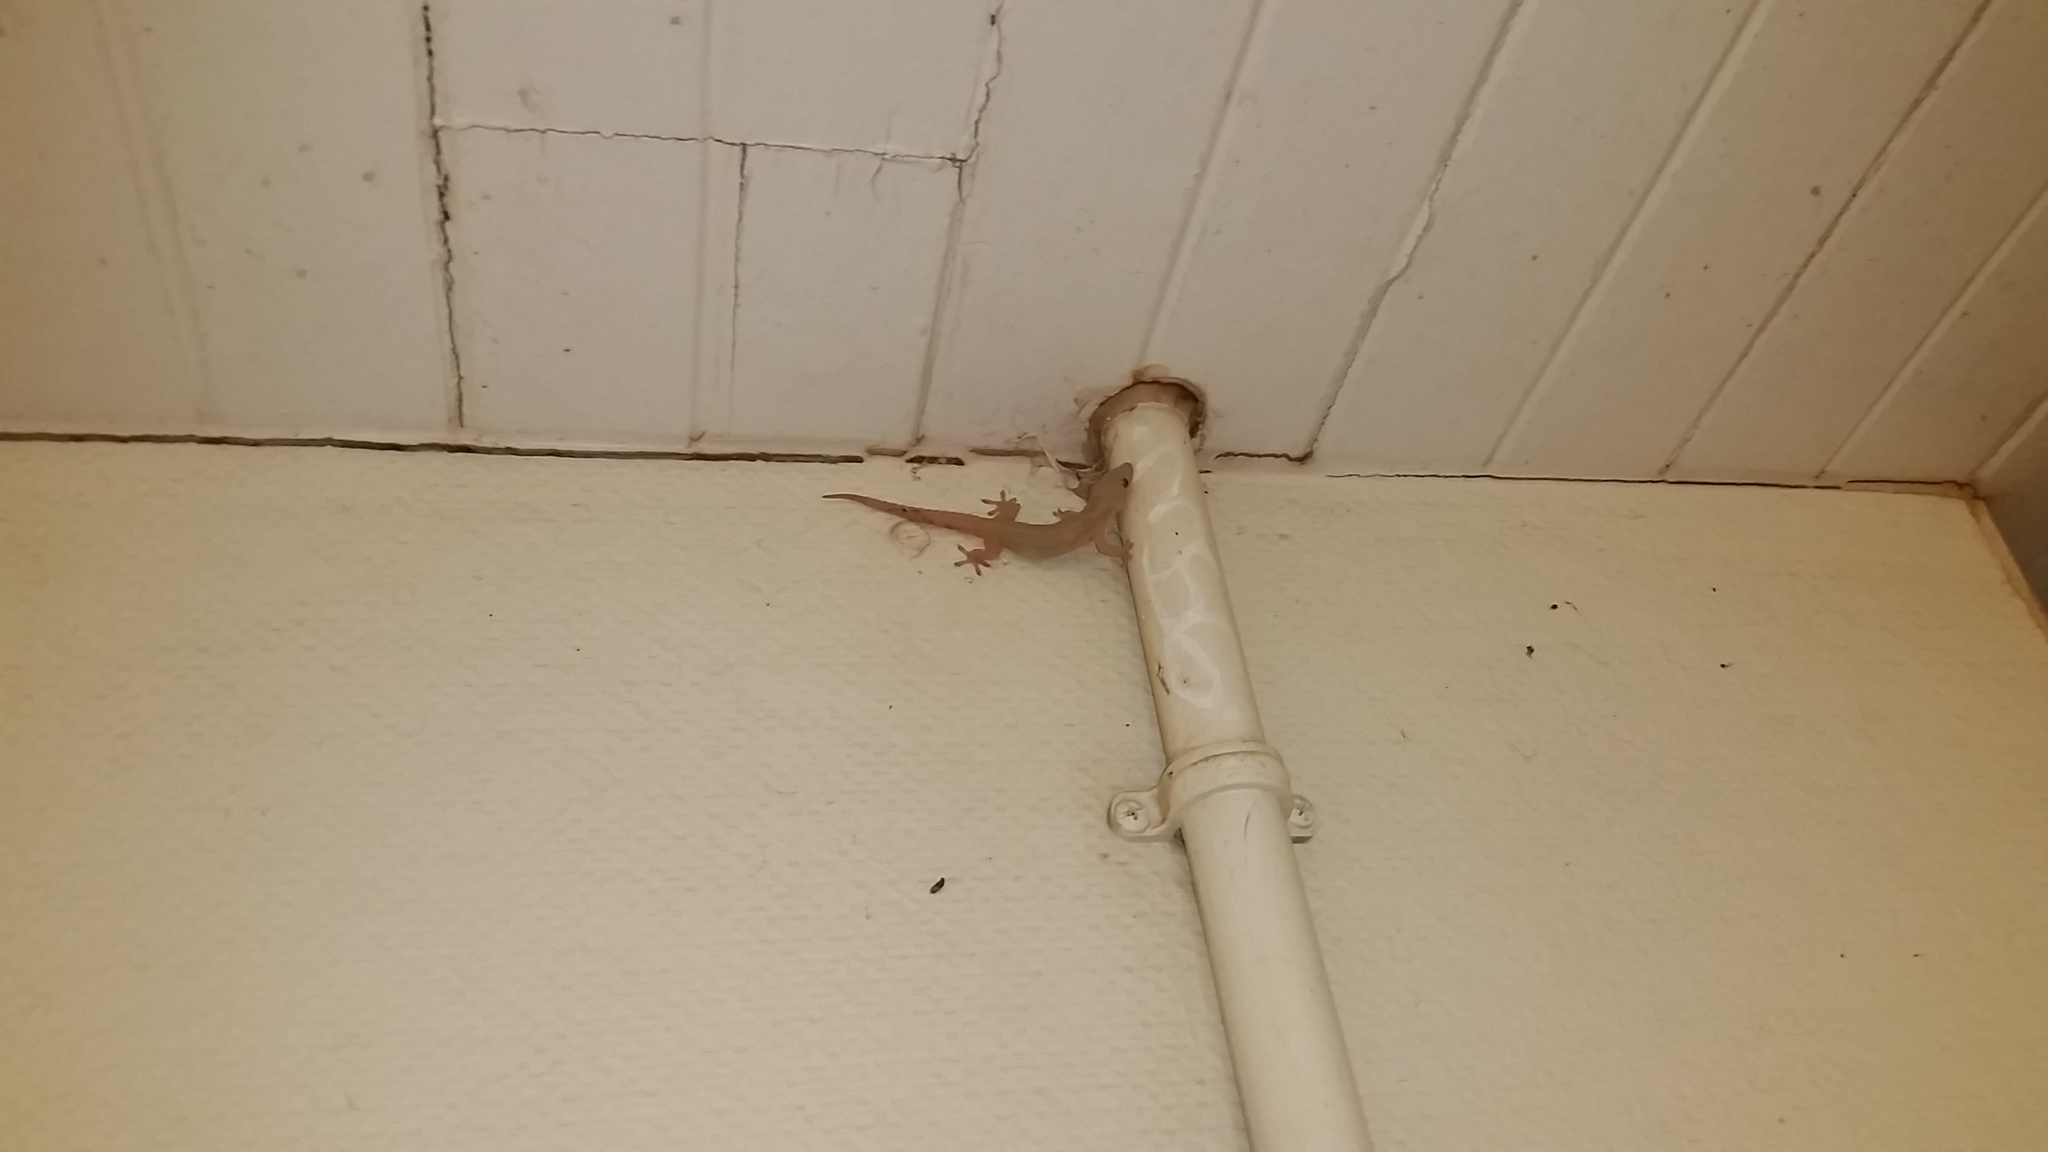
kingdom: Animalia
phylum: Chordata
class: Squamata
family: Gekkonidae
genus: Hemidactylus
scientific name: Hemidactylus frenatus
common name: Common house gecko
